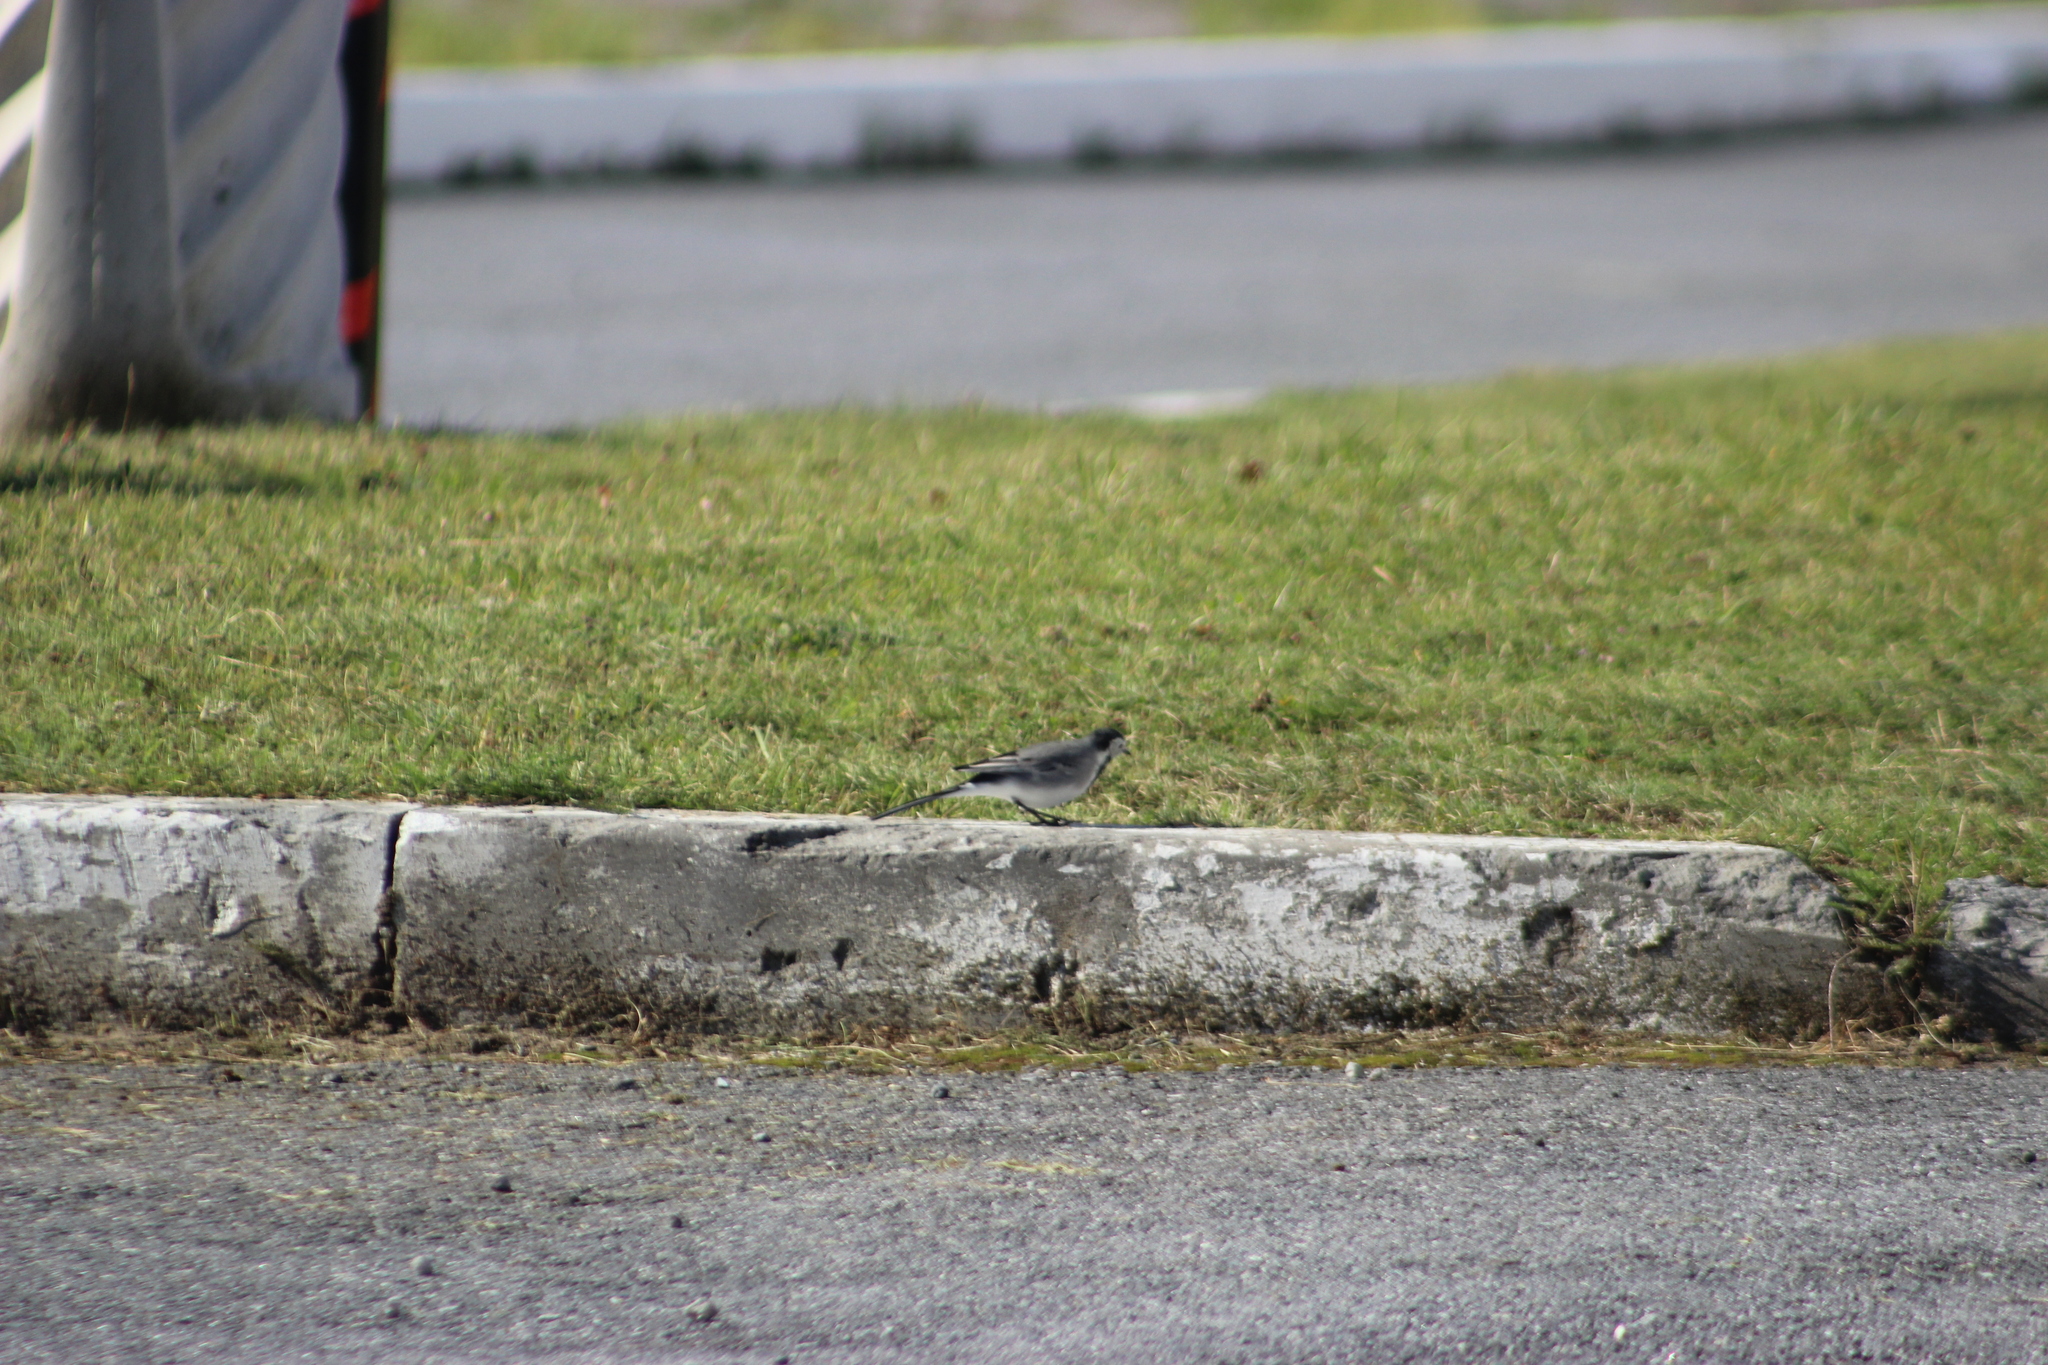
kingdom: Animalia
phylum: Chordata
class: Aves
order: Passeriformes
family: Motacillidae
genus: Motacilla
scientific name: Motacilla alba
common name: White wagtail
